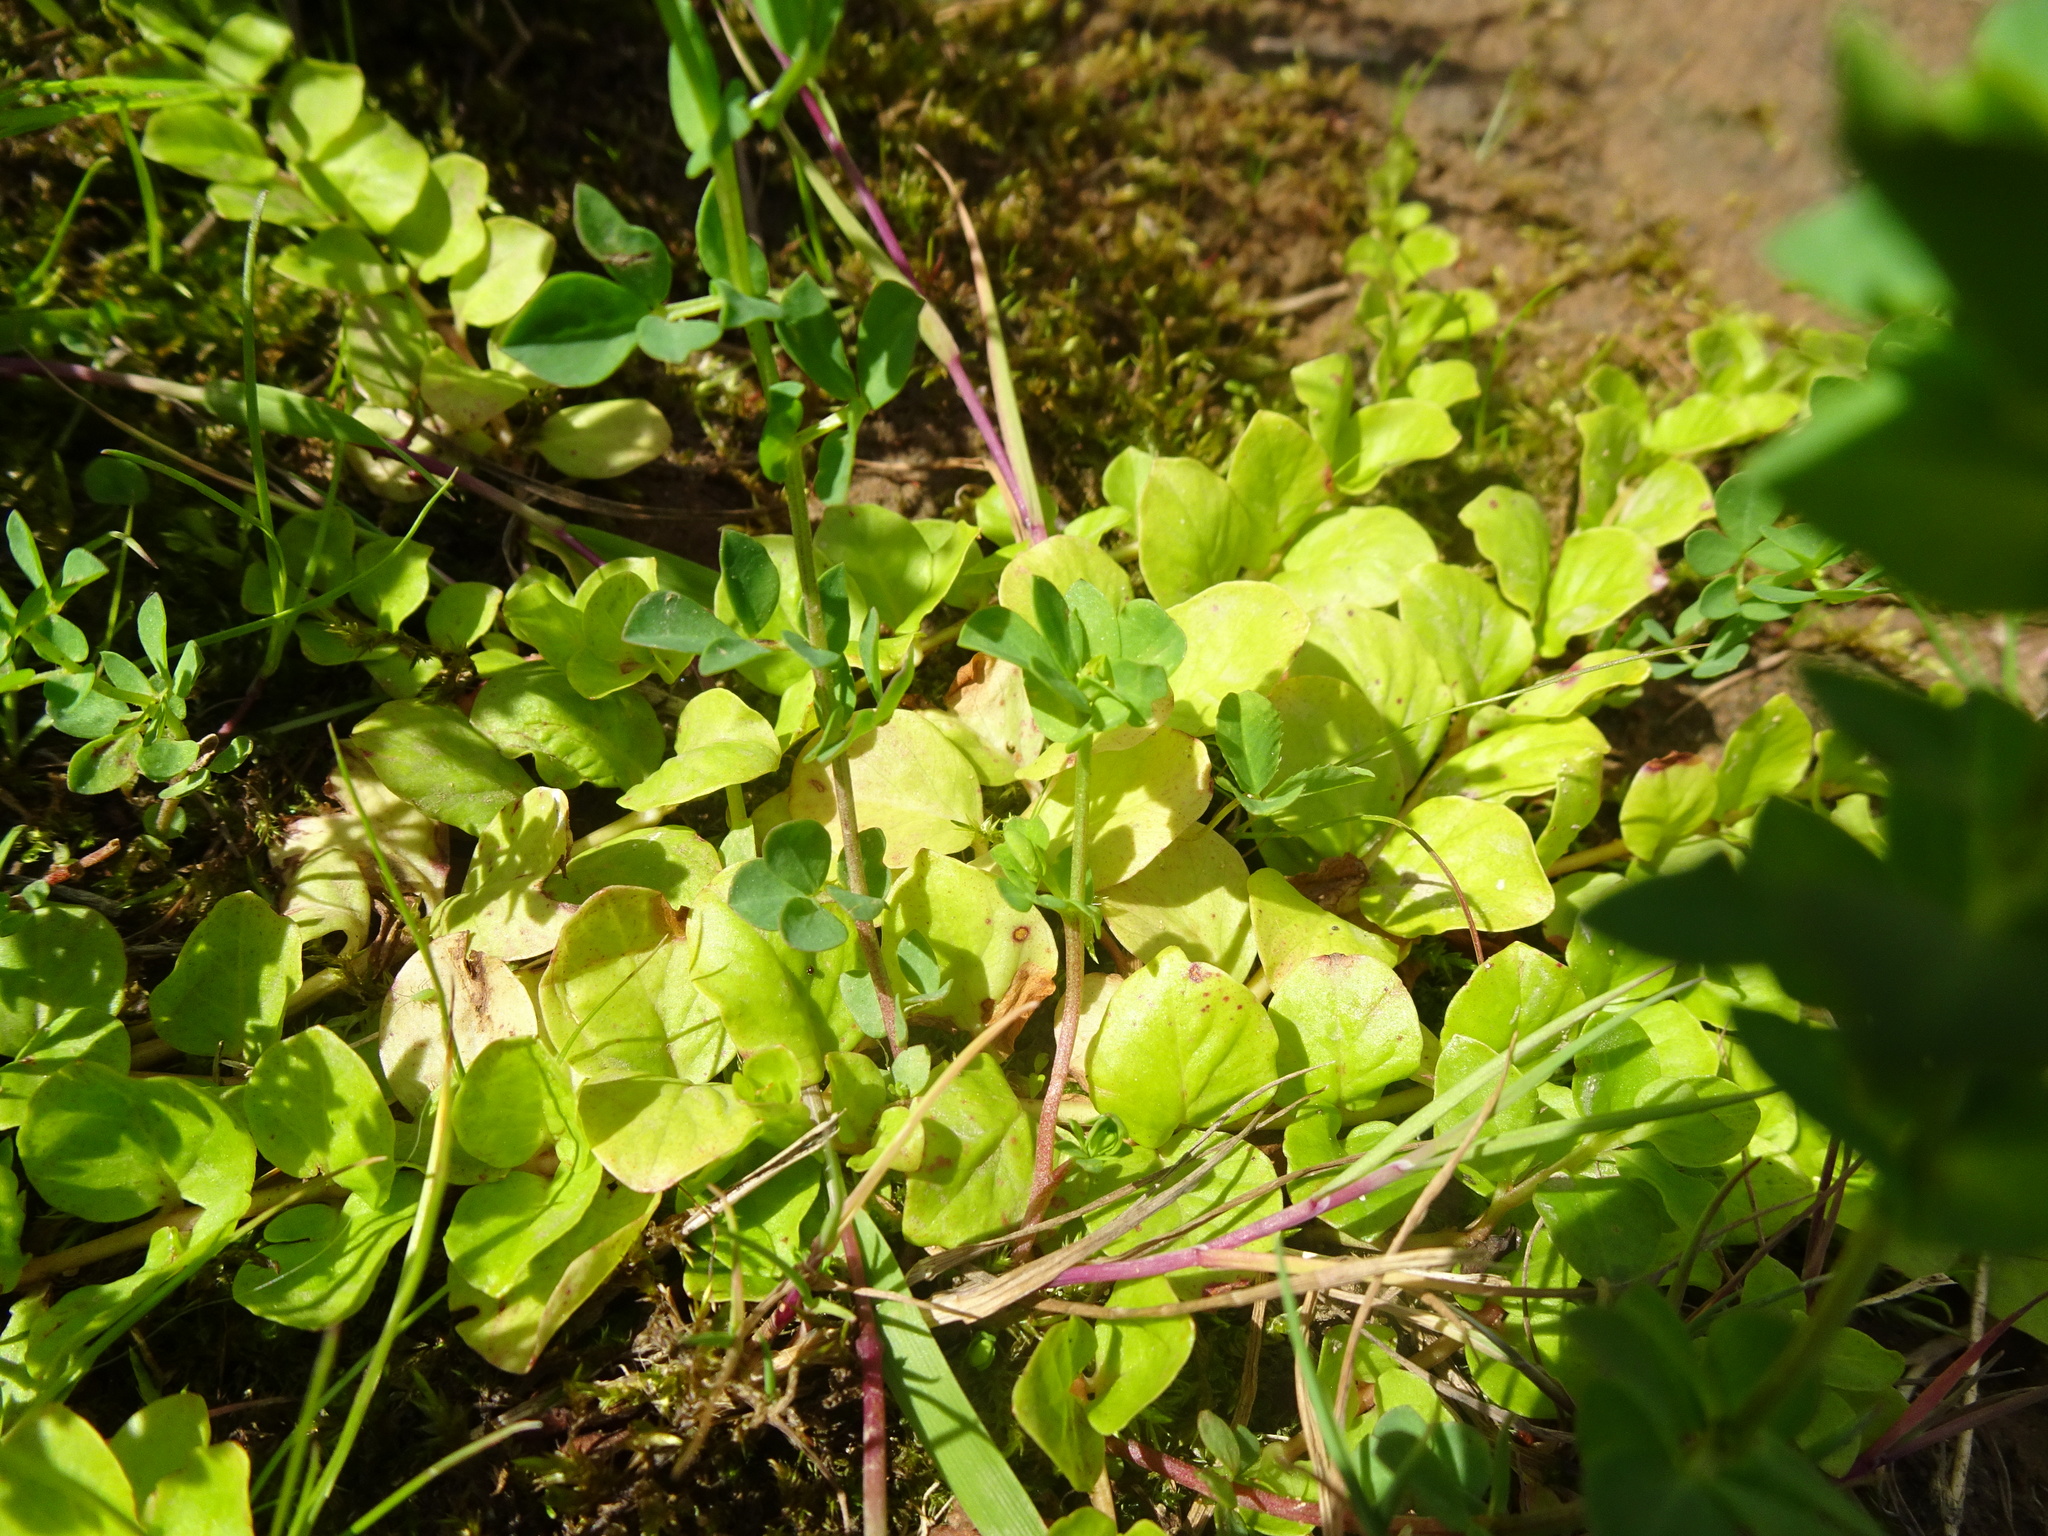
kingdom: Plantae
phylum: Tracheophyta
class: Magnoliopsida
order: Ericales
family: Primulaceae
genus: Lysimachia
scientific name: Lysimachia nummularia
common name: Moneywort
